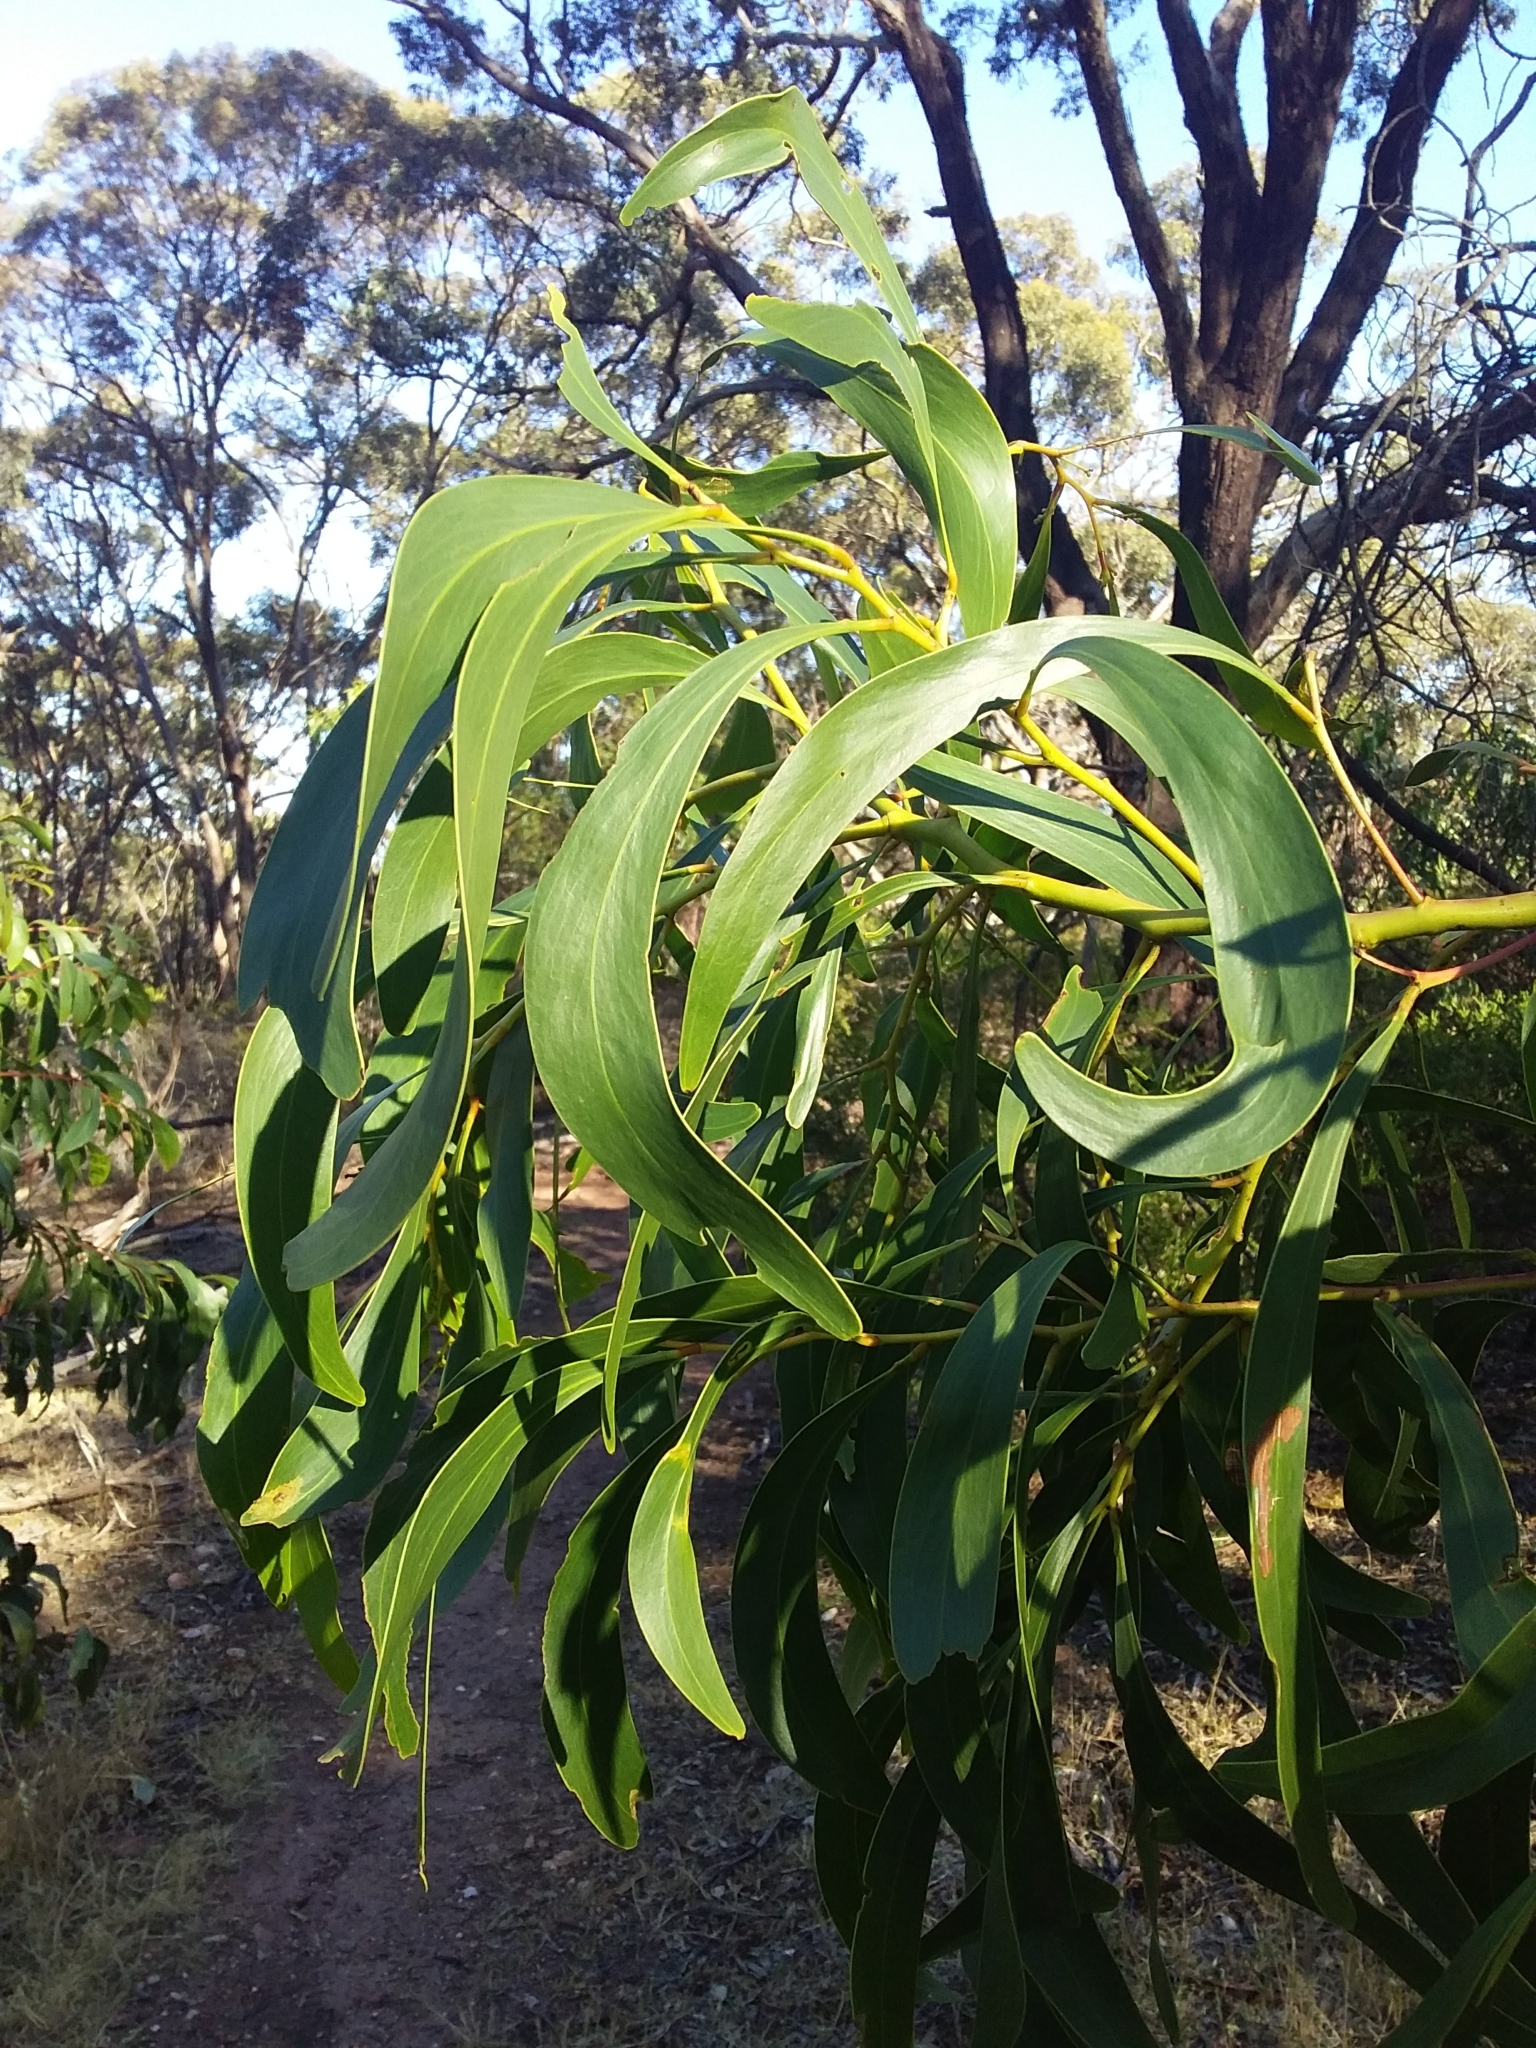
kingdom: Plantae
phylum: Tracheophyta
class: Magnoliopsida
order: Fabales
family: Fabaceae
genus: Acacia
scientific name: Acacia pycnantha
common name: Golden wattle
